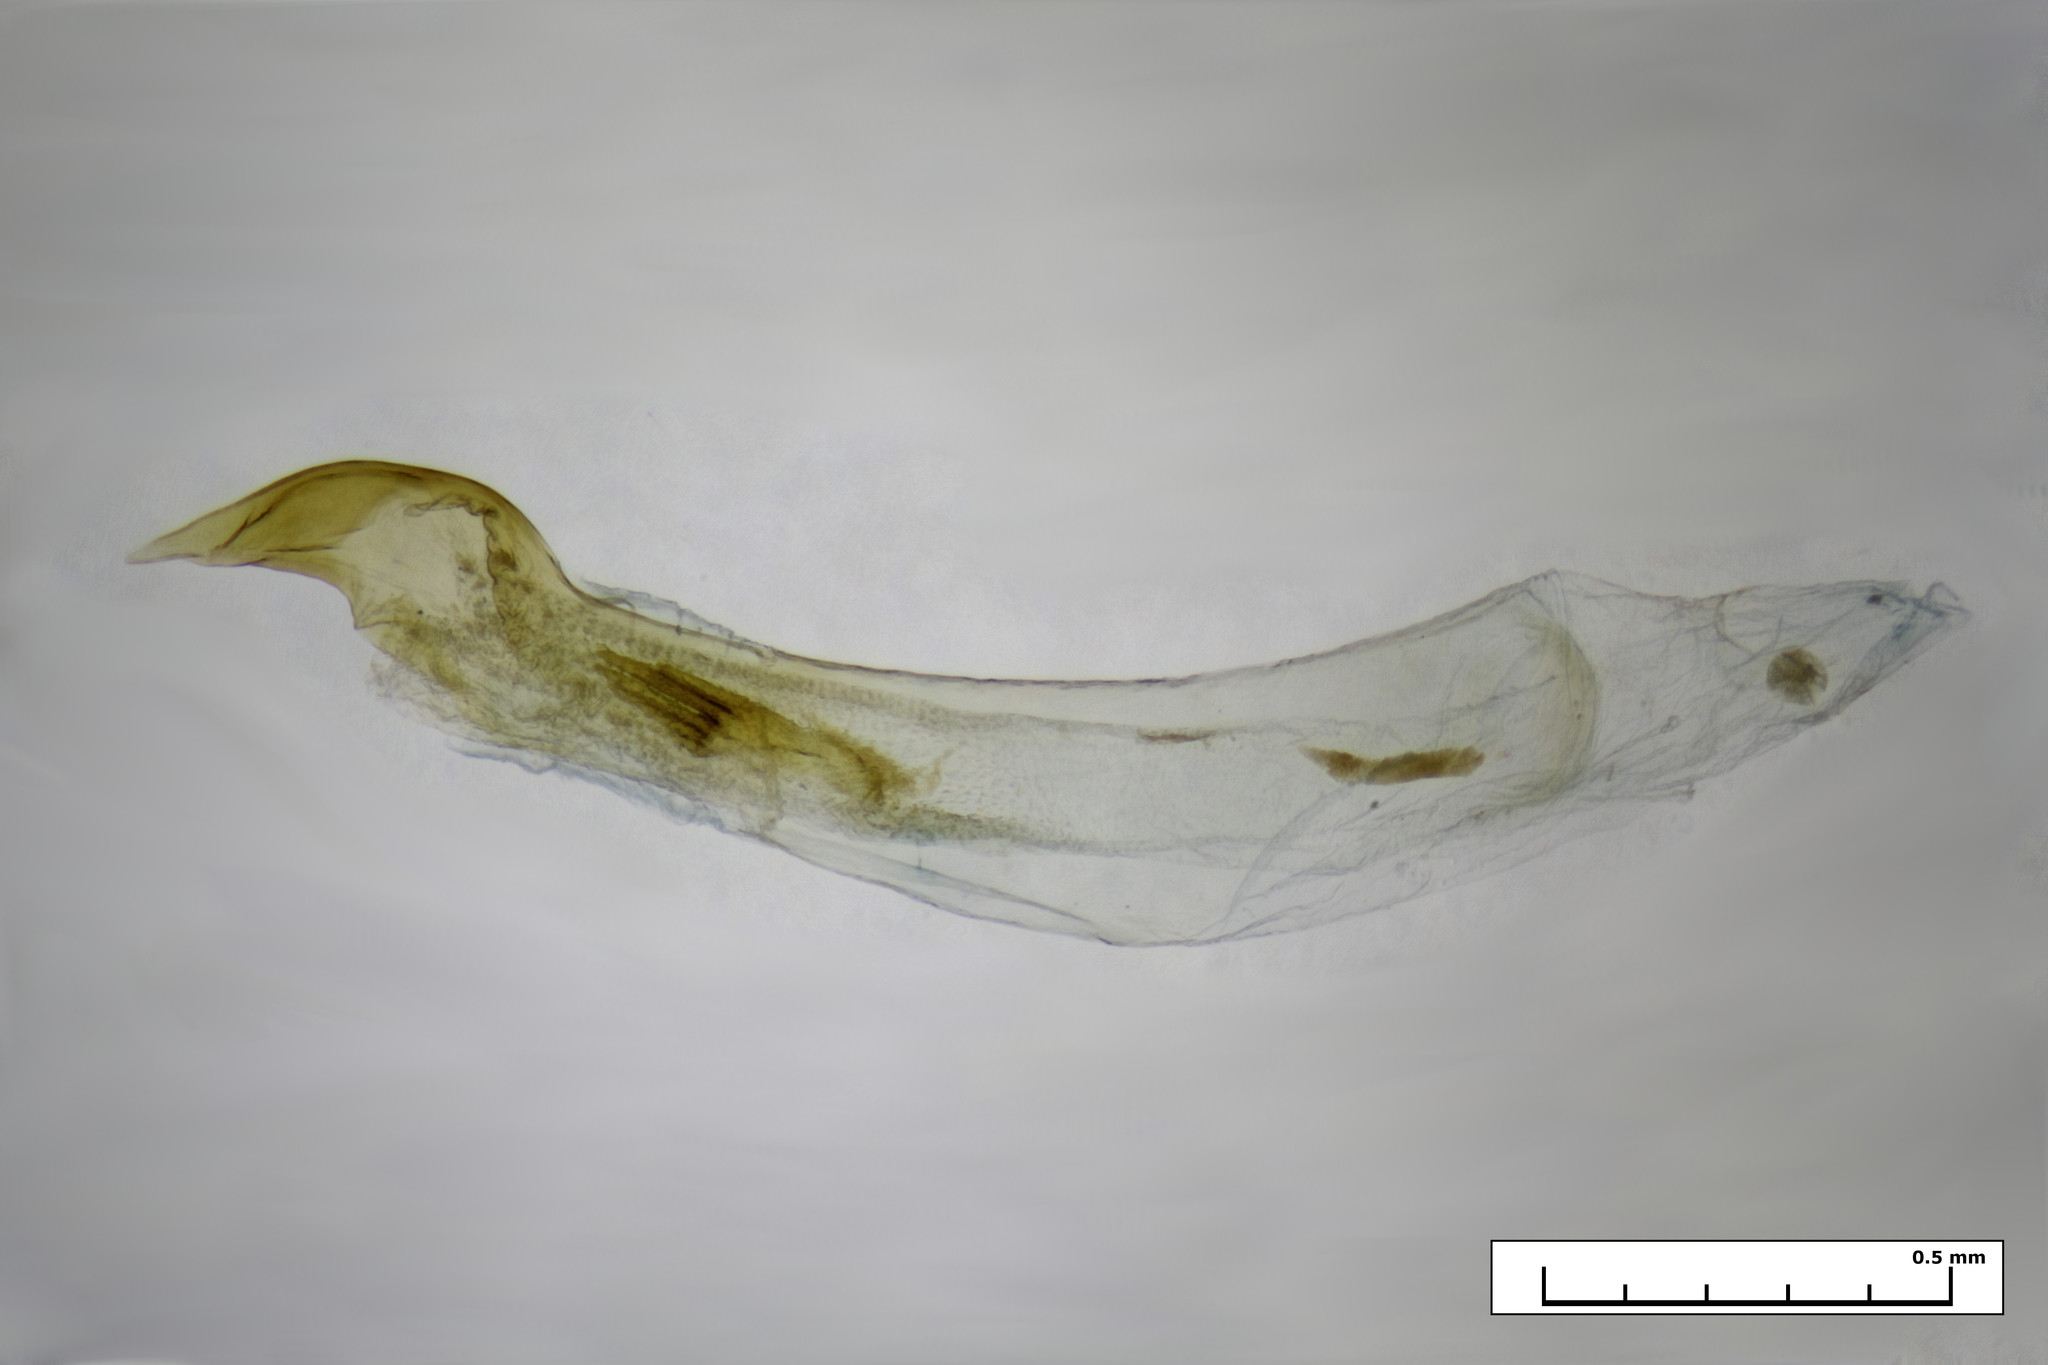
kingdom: Animalia
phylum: Arthropoda
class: Insecta
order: Lepidoptera
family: Geometridae
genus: Mnesampela
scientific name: Mnesampela lenaea
